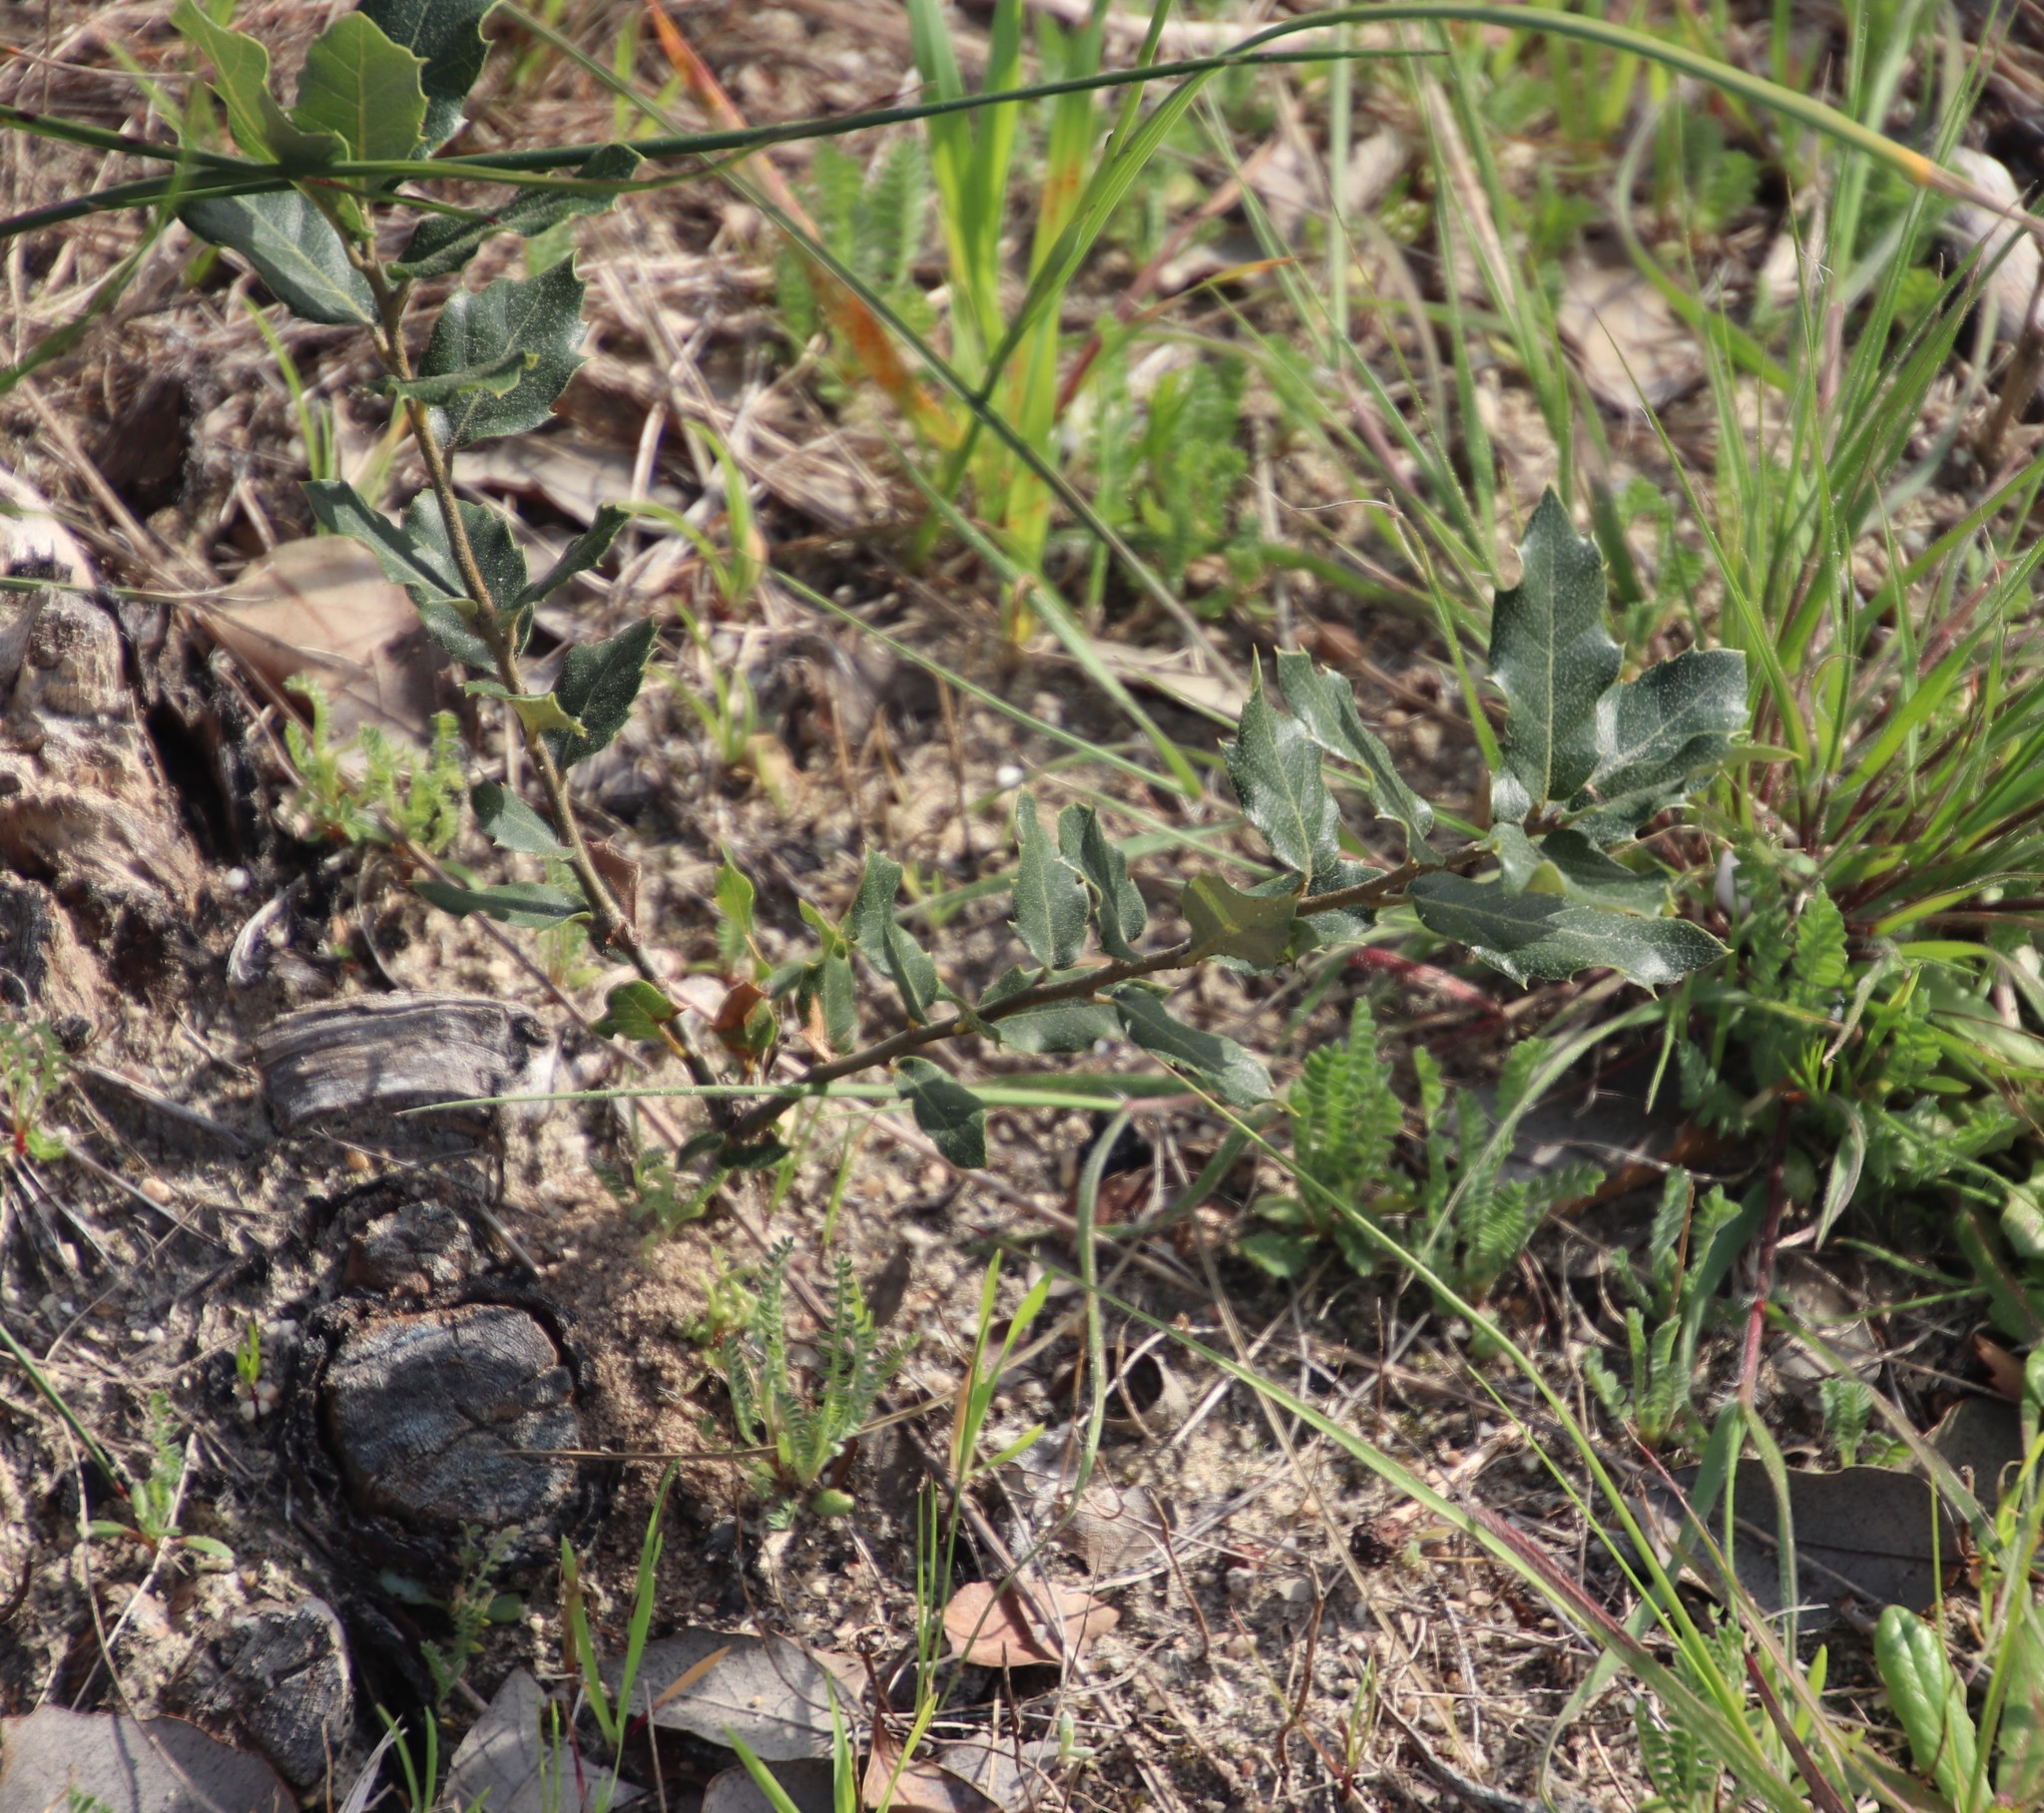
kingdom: Plantae
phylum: Tracheophyta
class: Magnoliopsida
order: Fagales
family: Fagaceae
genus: Quercus
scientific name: Quercus ilex
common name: Evergreen oak
